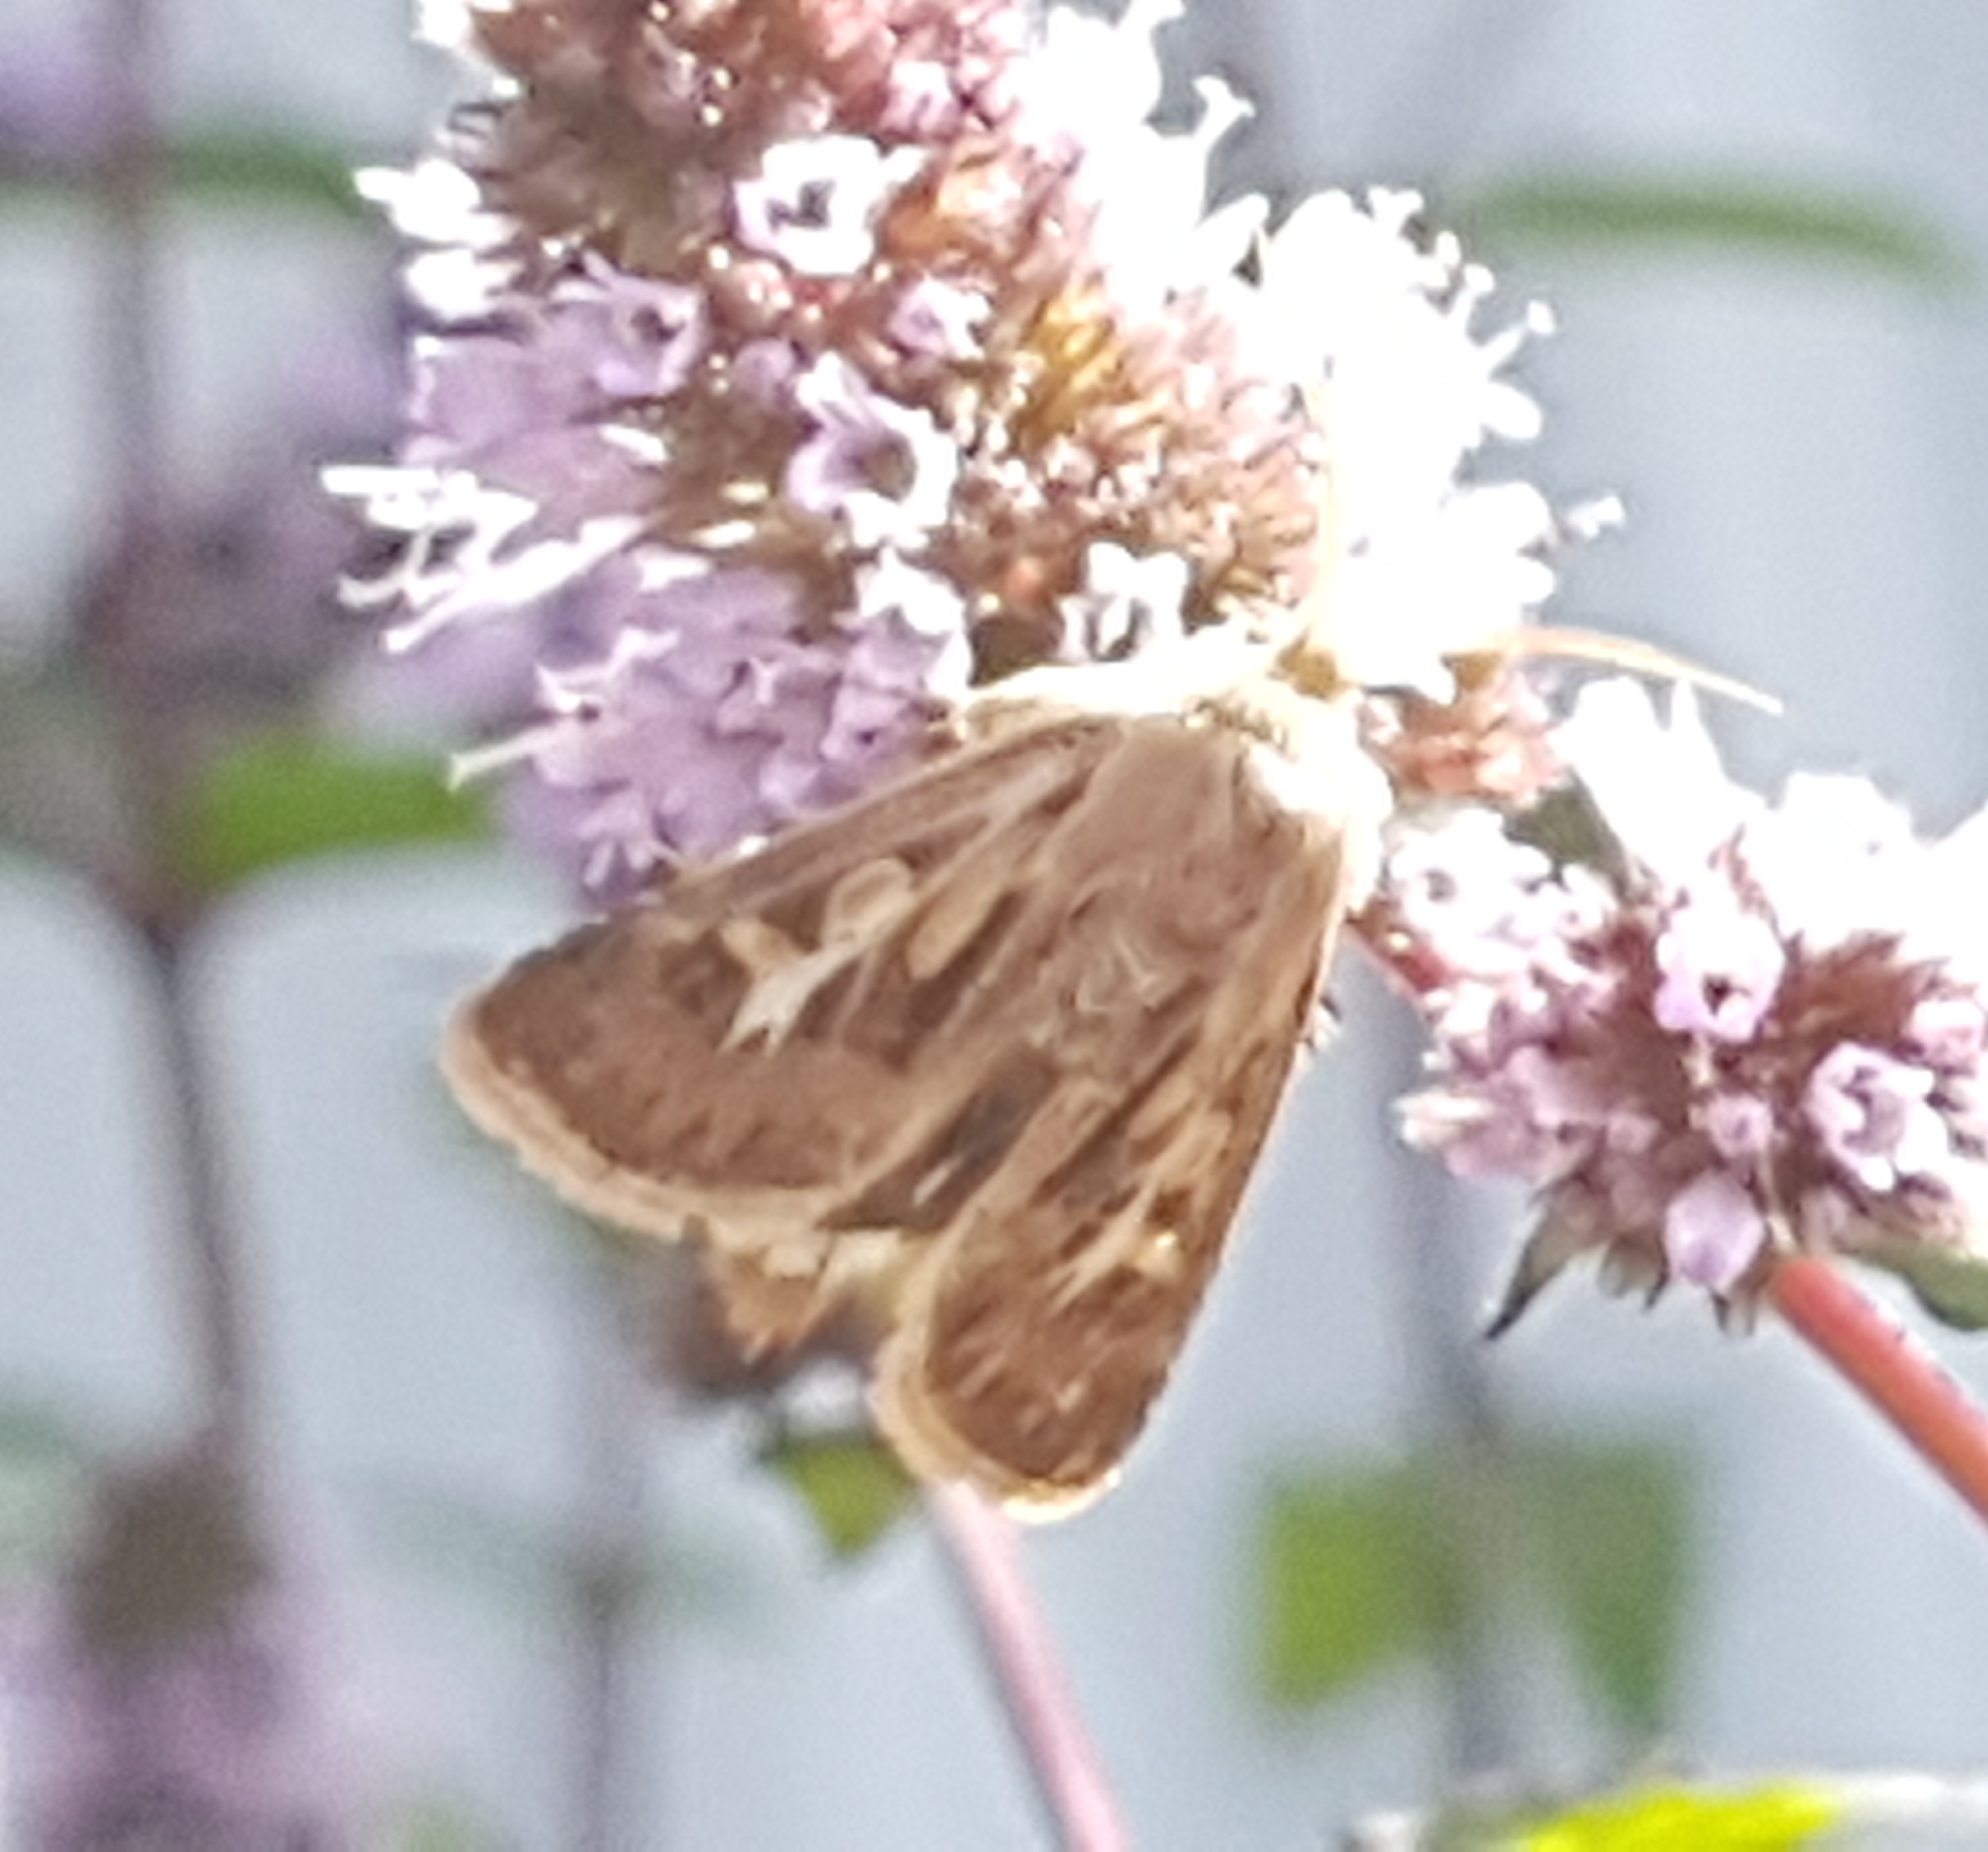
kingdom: Animalia
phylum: Arthropoda
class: Insecta
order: Lepidoptera
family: Noctuidae
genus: Cerapteryx
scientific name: Cerapteryx graminis
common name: Antler moth
